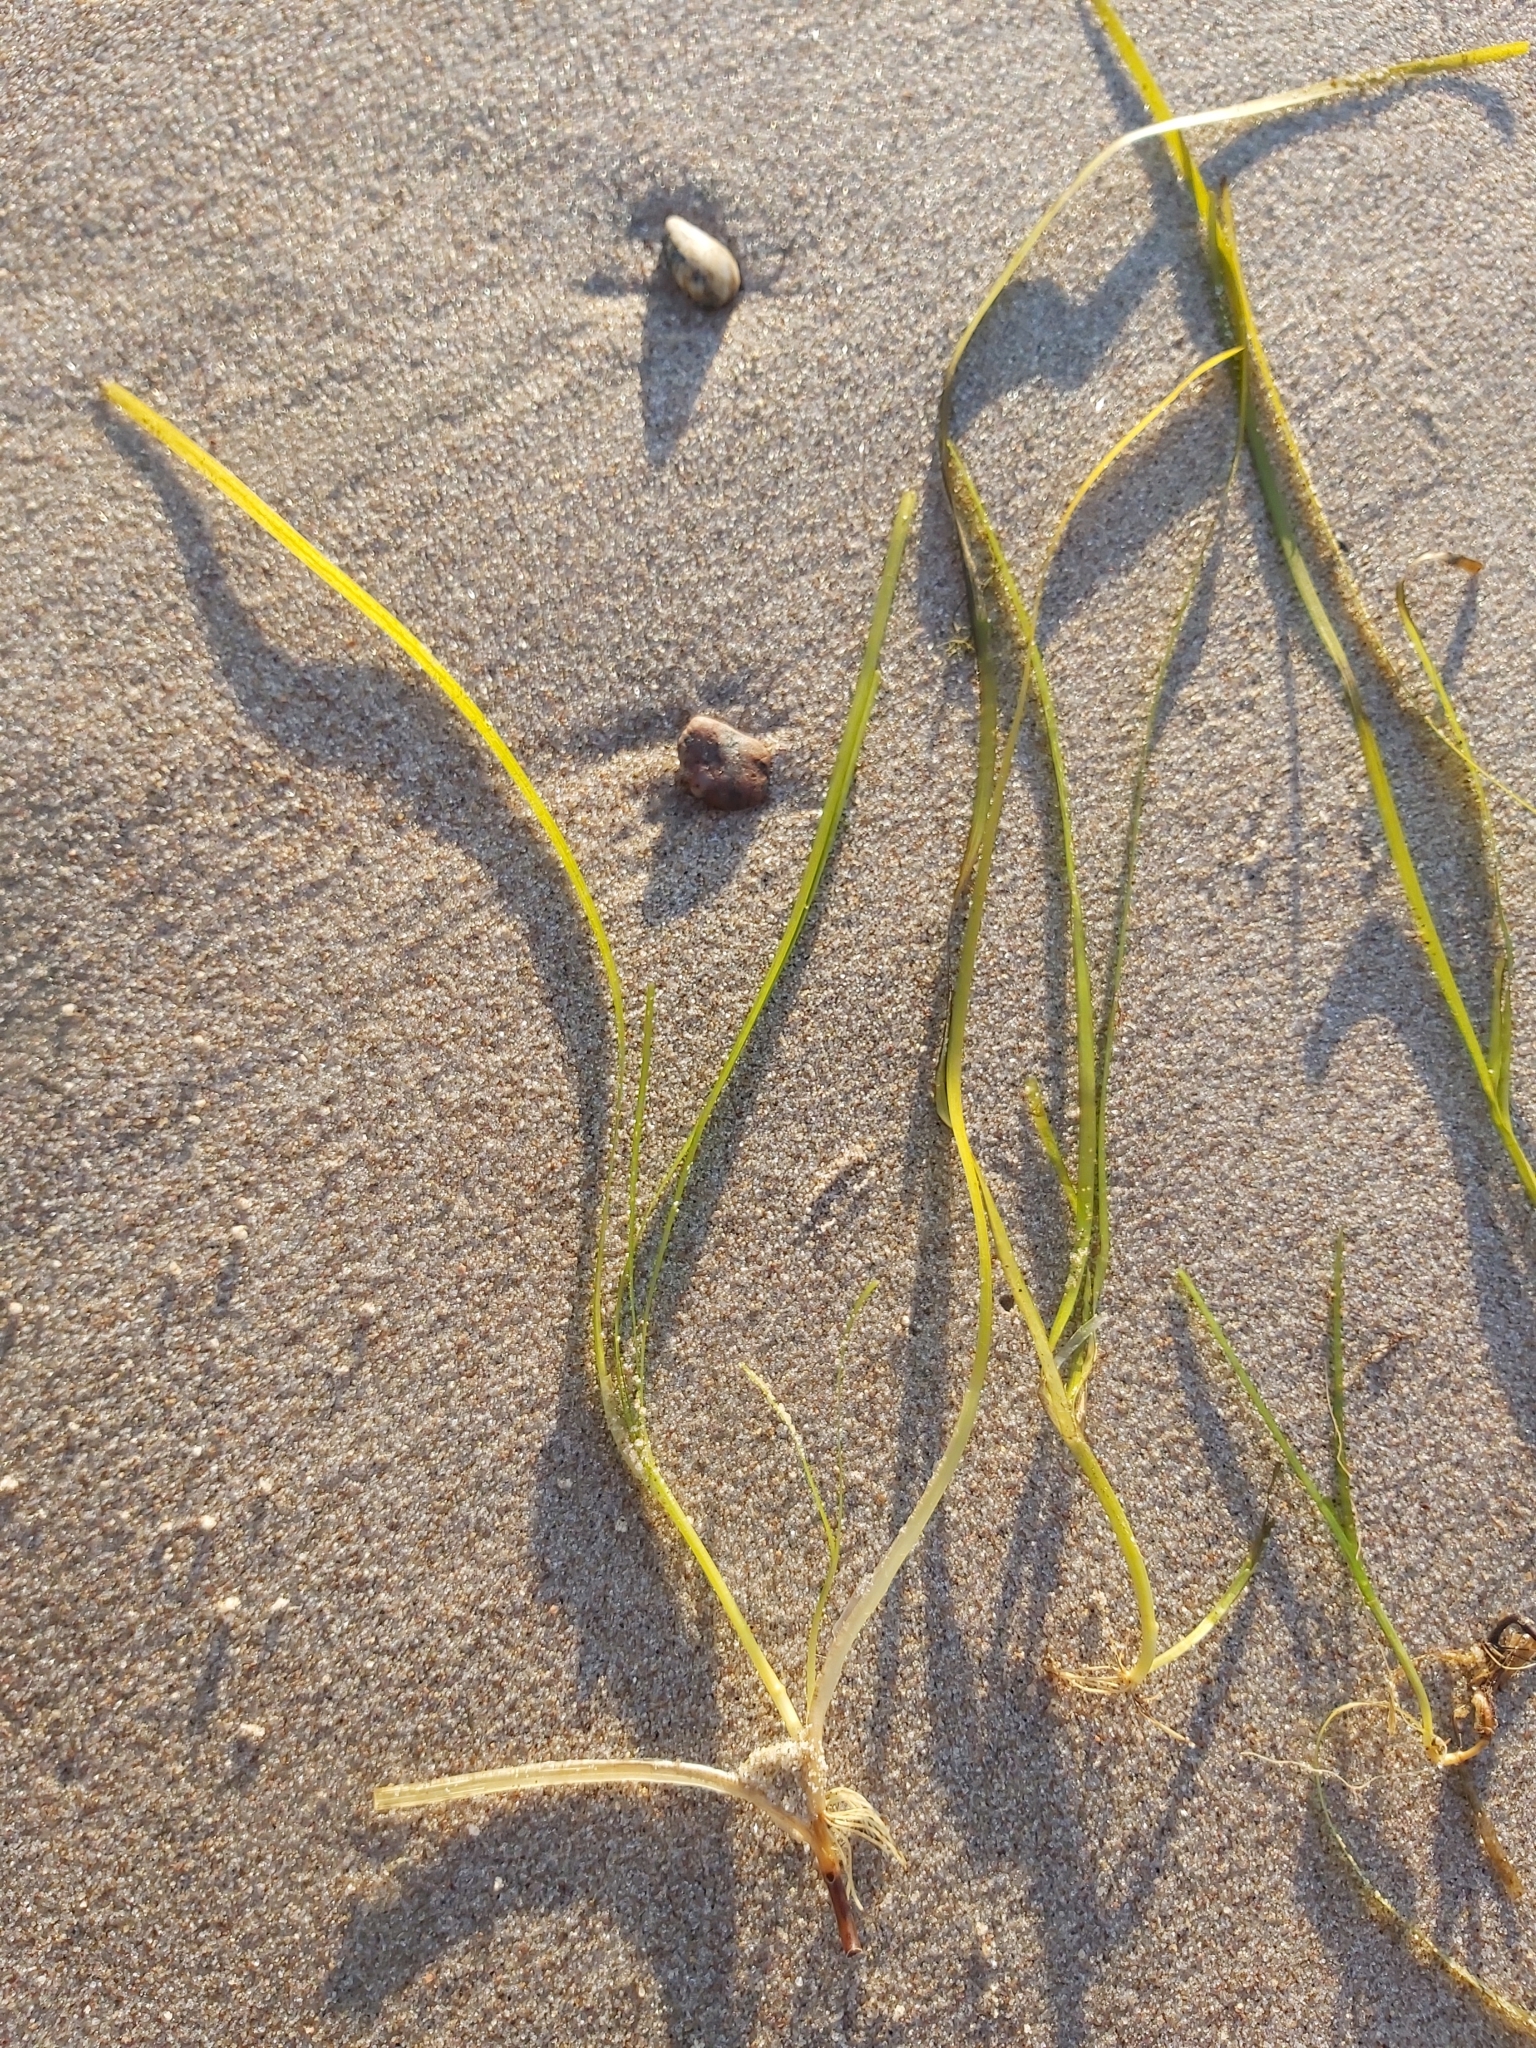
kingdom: Plantae
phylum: Tracheophyta
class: Liliopsida
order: Alismatales
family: Zosteraceae
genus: Zostera
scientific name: Zostera marina
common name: Eelgrass
